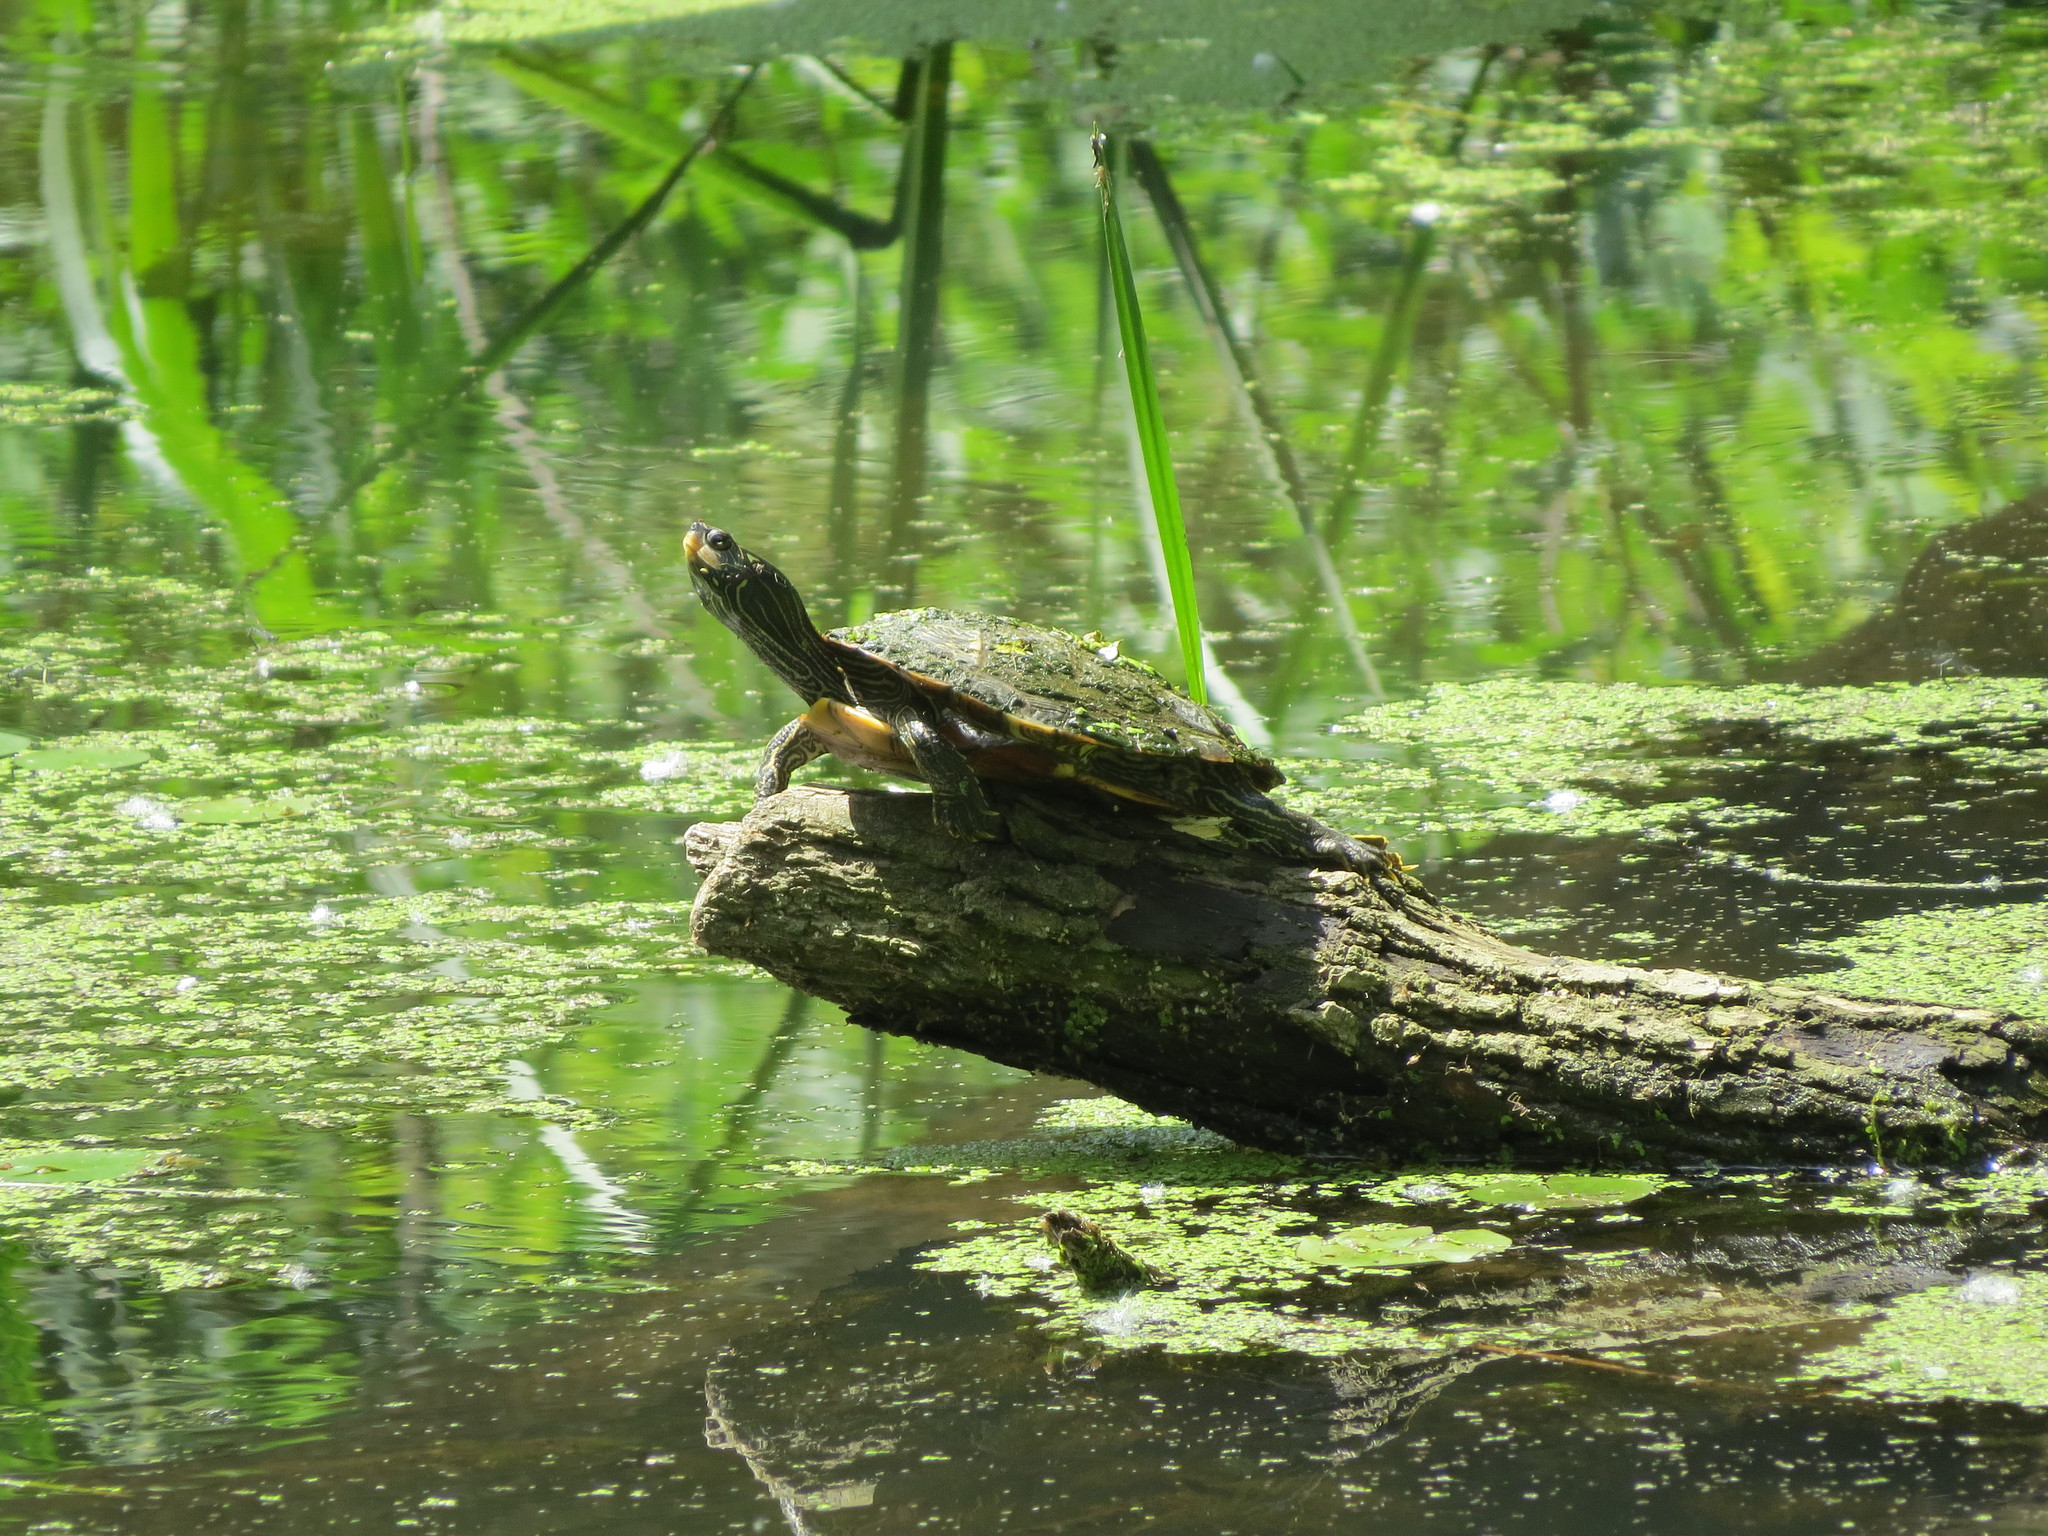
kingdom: Animalia
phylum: Chordata
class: Testudines
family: Emydidae
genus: Graptemys
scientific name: Graptemys geographica
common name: Common map turtle
